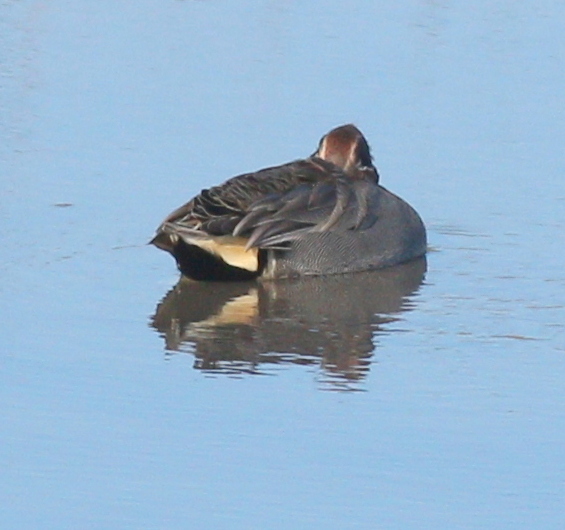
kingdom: Animalia
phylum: Chordata
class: Aves
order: Anseriformes
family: Anatidae
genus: Anas
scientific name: Anas crecca
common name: Eurasian teal
